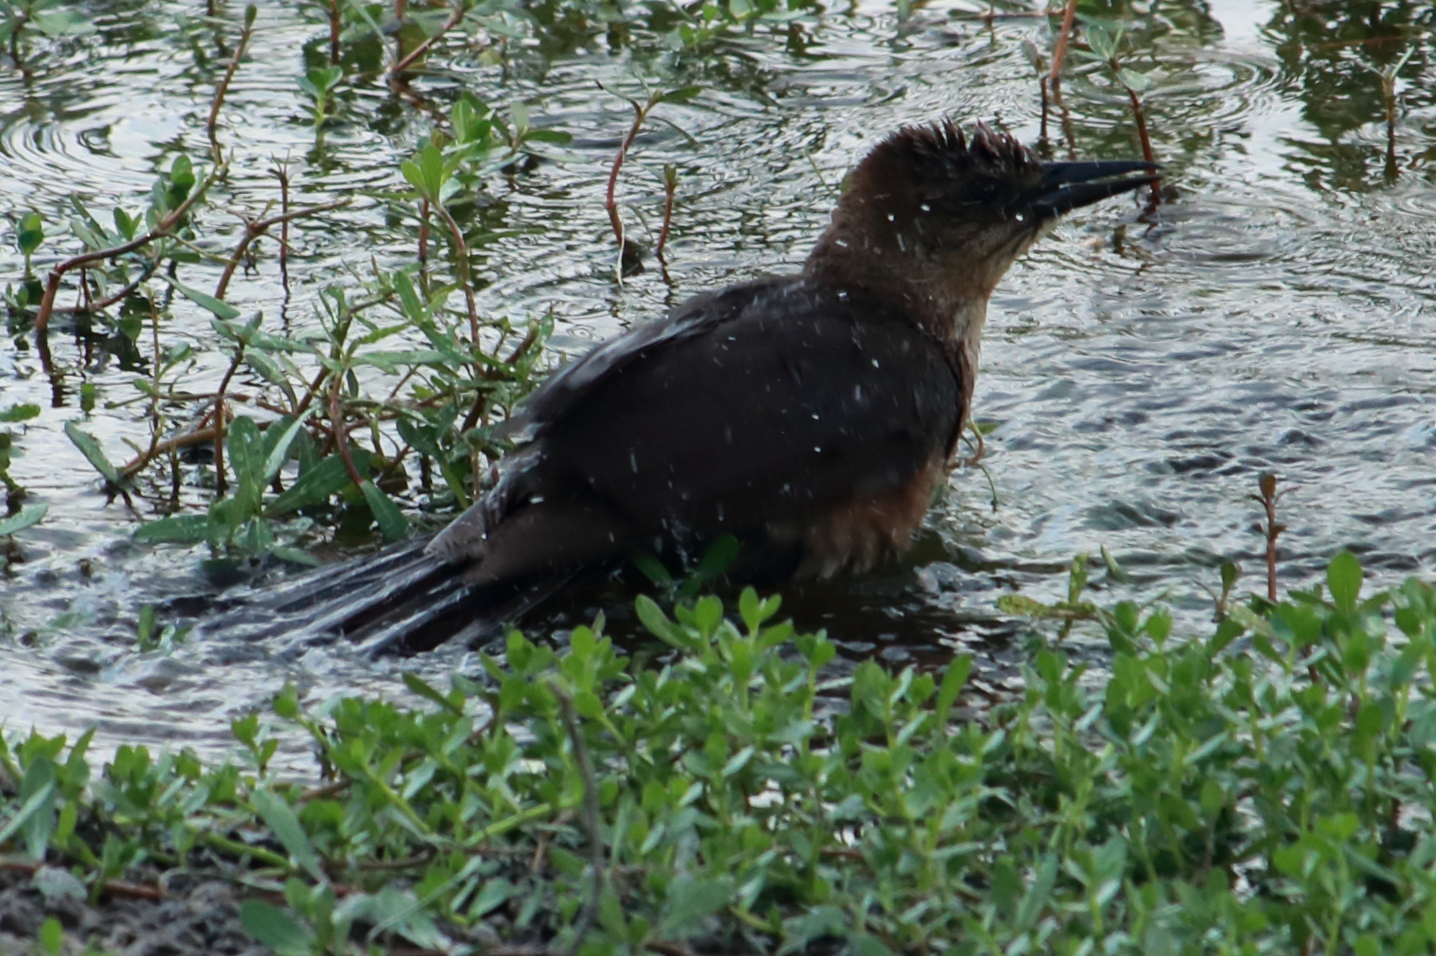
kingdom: Animalia
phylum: Chordata
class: Aves
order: Passeriformes
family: Icteridae
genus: Quiscalus
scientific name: Quiscalus major
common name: Boat-tailed grackle
